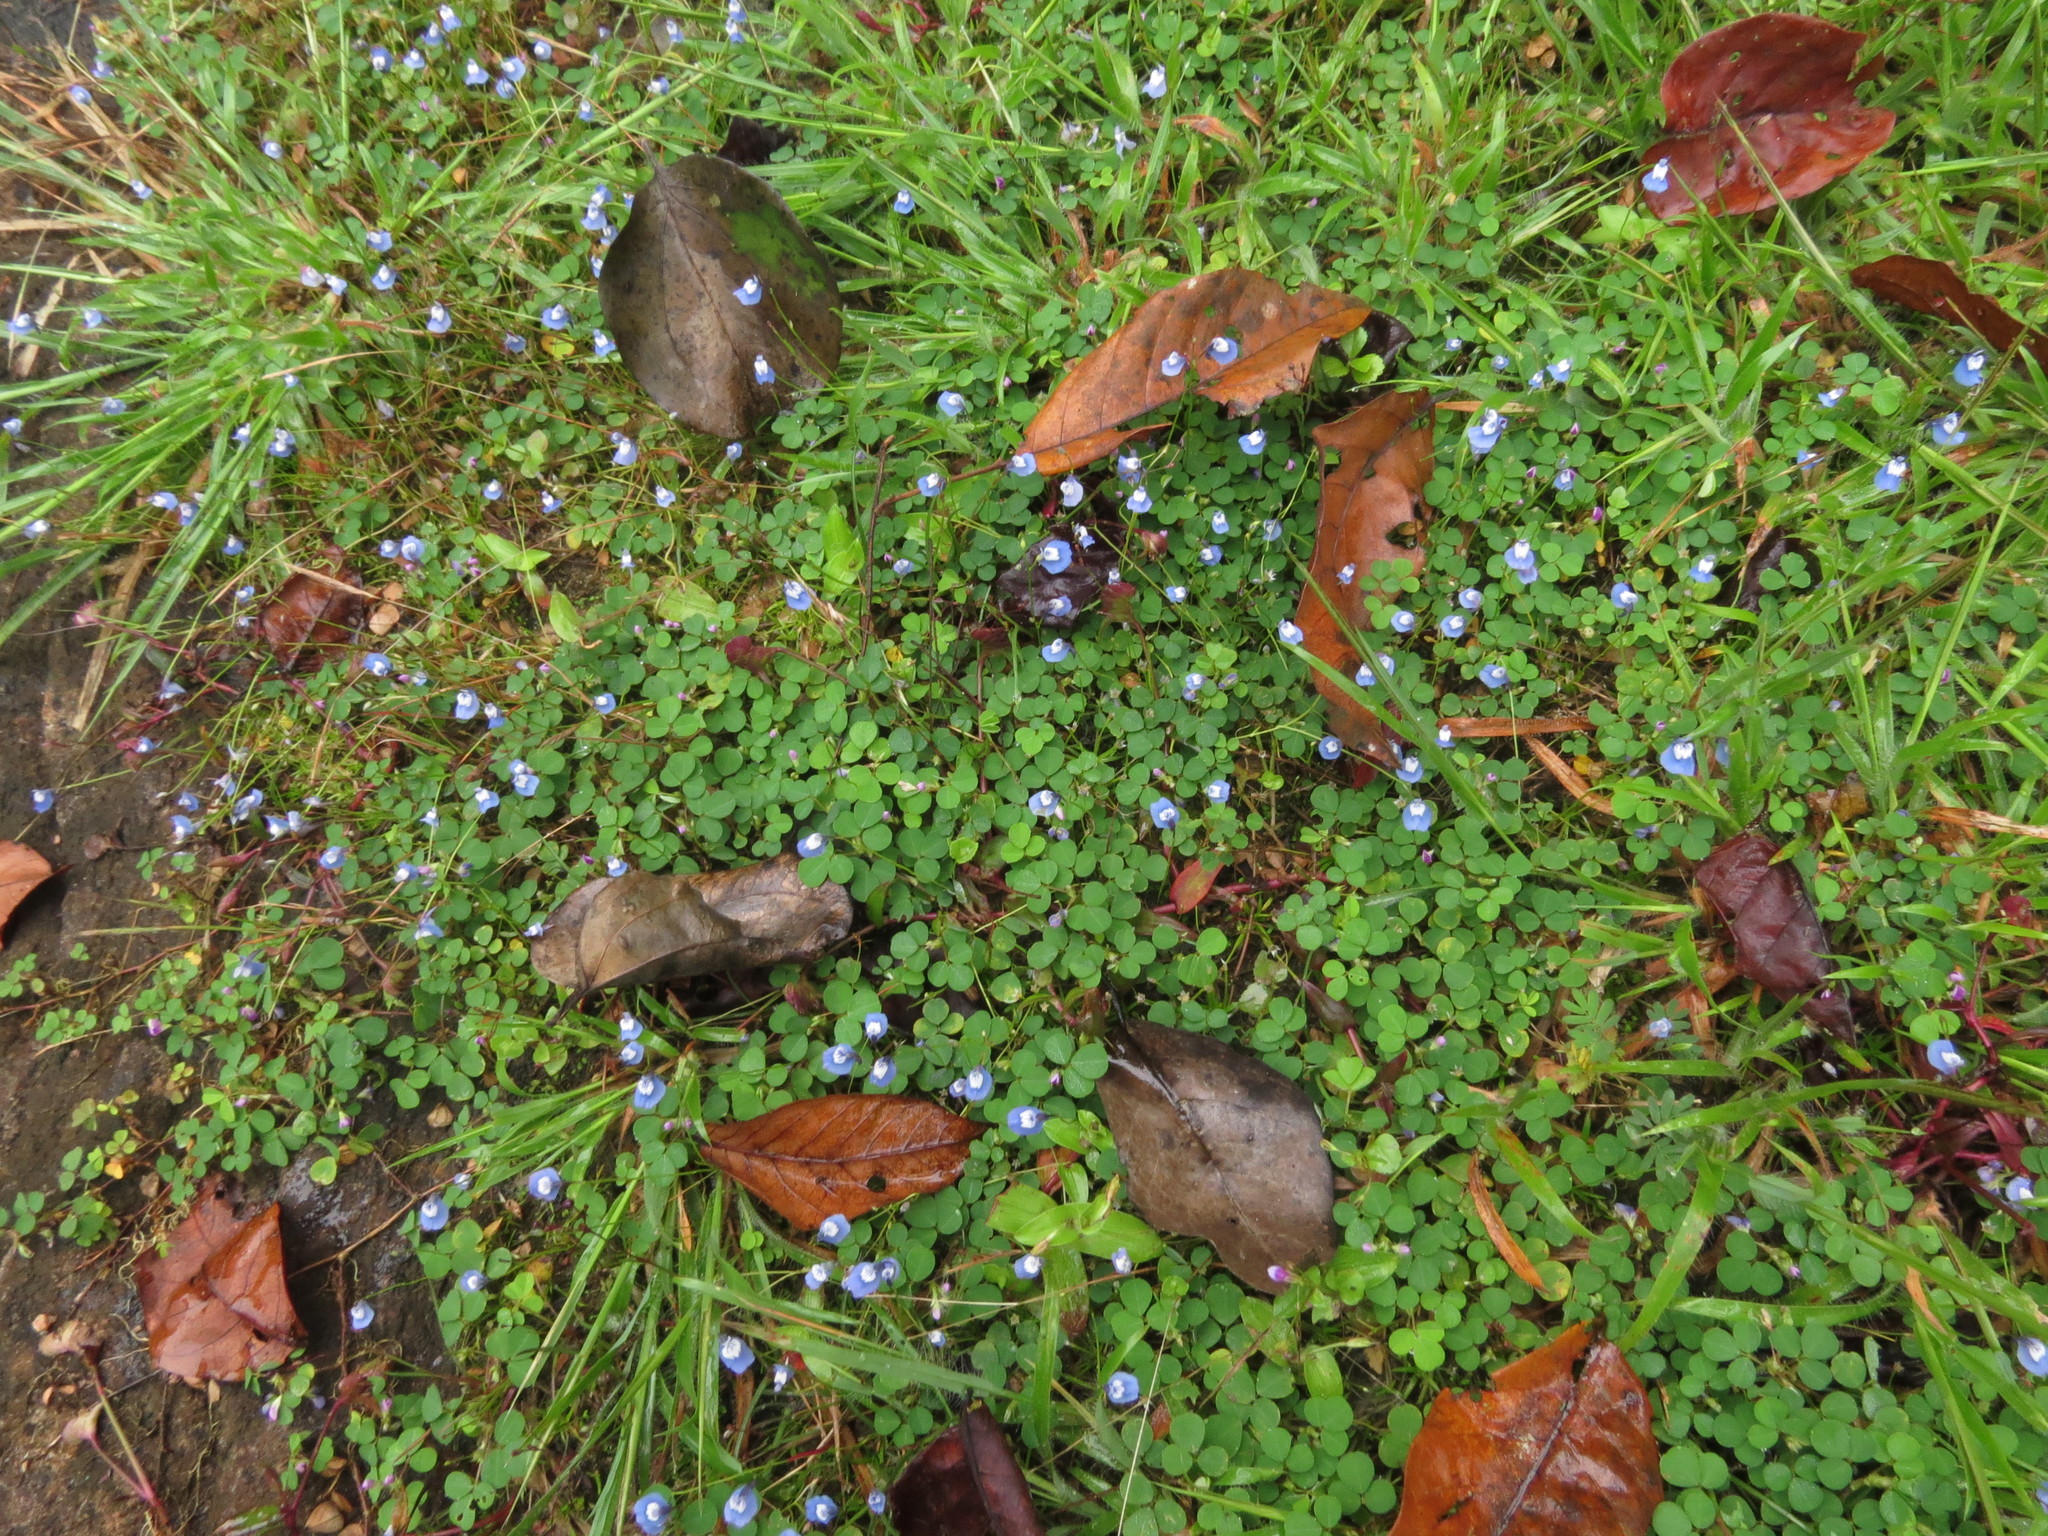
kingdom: Plantae
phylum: Tracheophyta
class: Magnoliopsida
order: Lamiales
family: Lentibulariaceae
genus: Utricularia
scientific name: Utricularia lazulina
